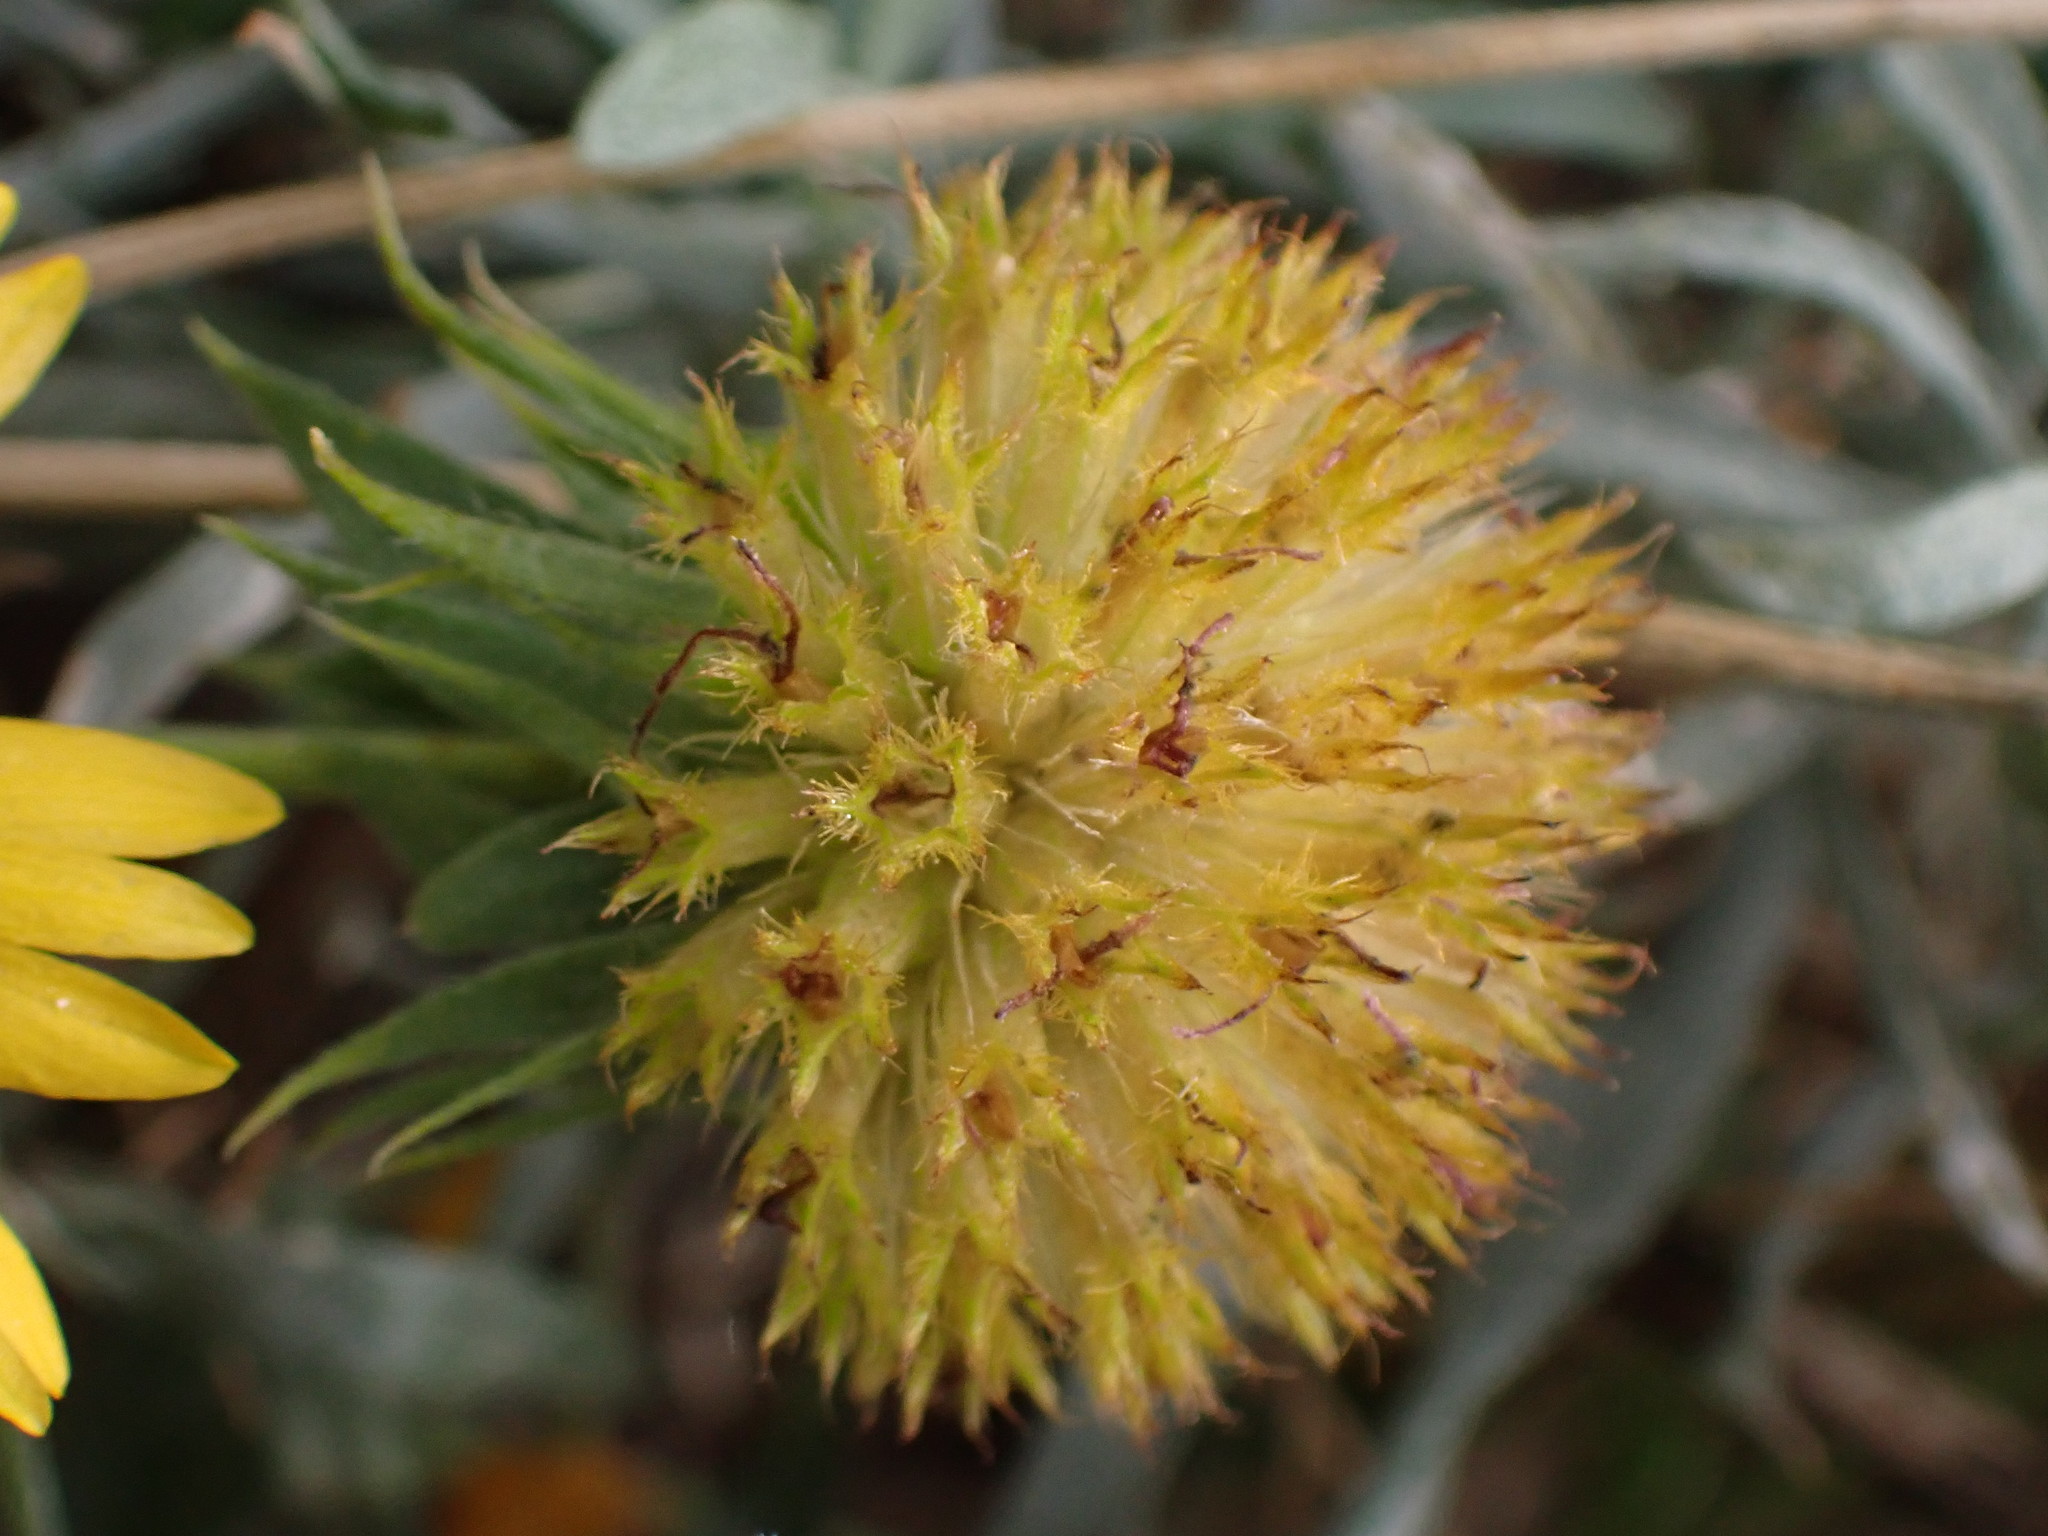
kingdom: Plantae
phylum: Tracheophyta
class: Magnoliopsida
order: Asterales
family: Asteraceae
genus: Gaillardia
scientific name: Gaillardia aristata
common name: Blanket-flower
